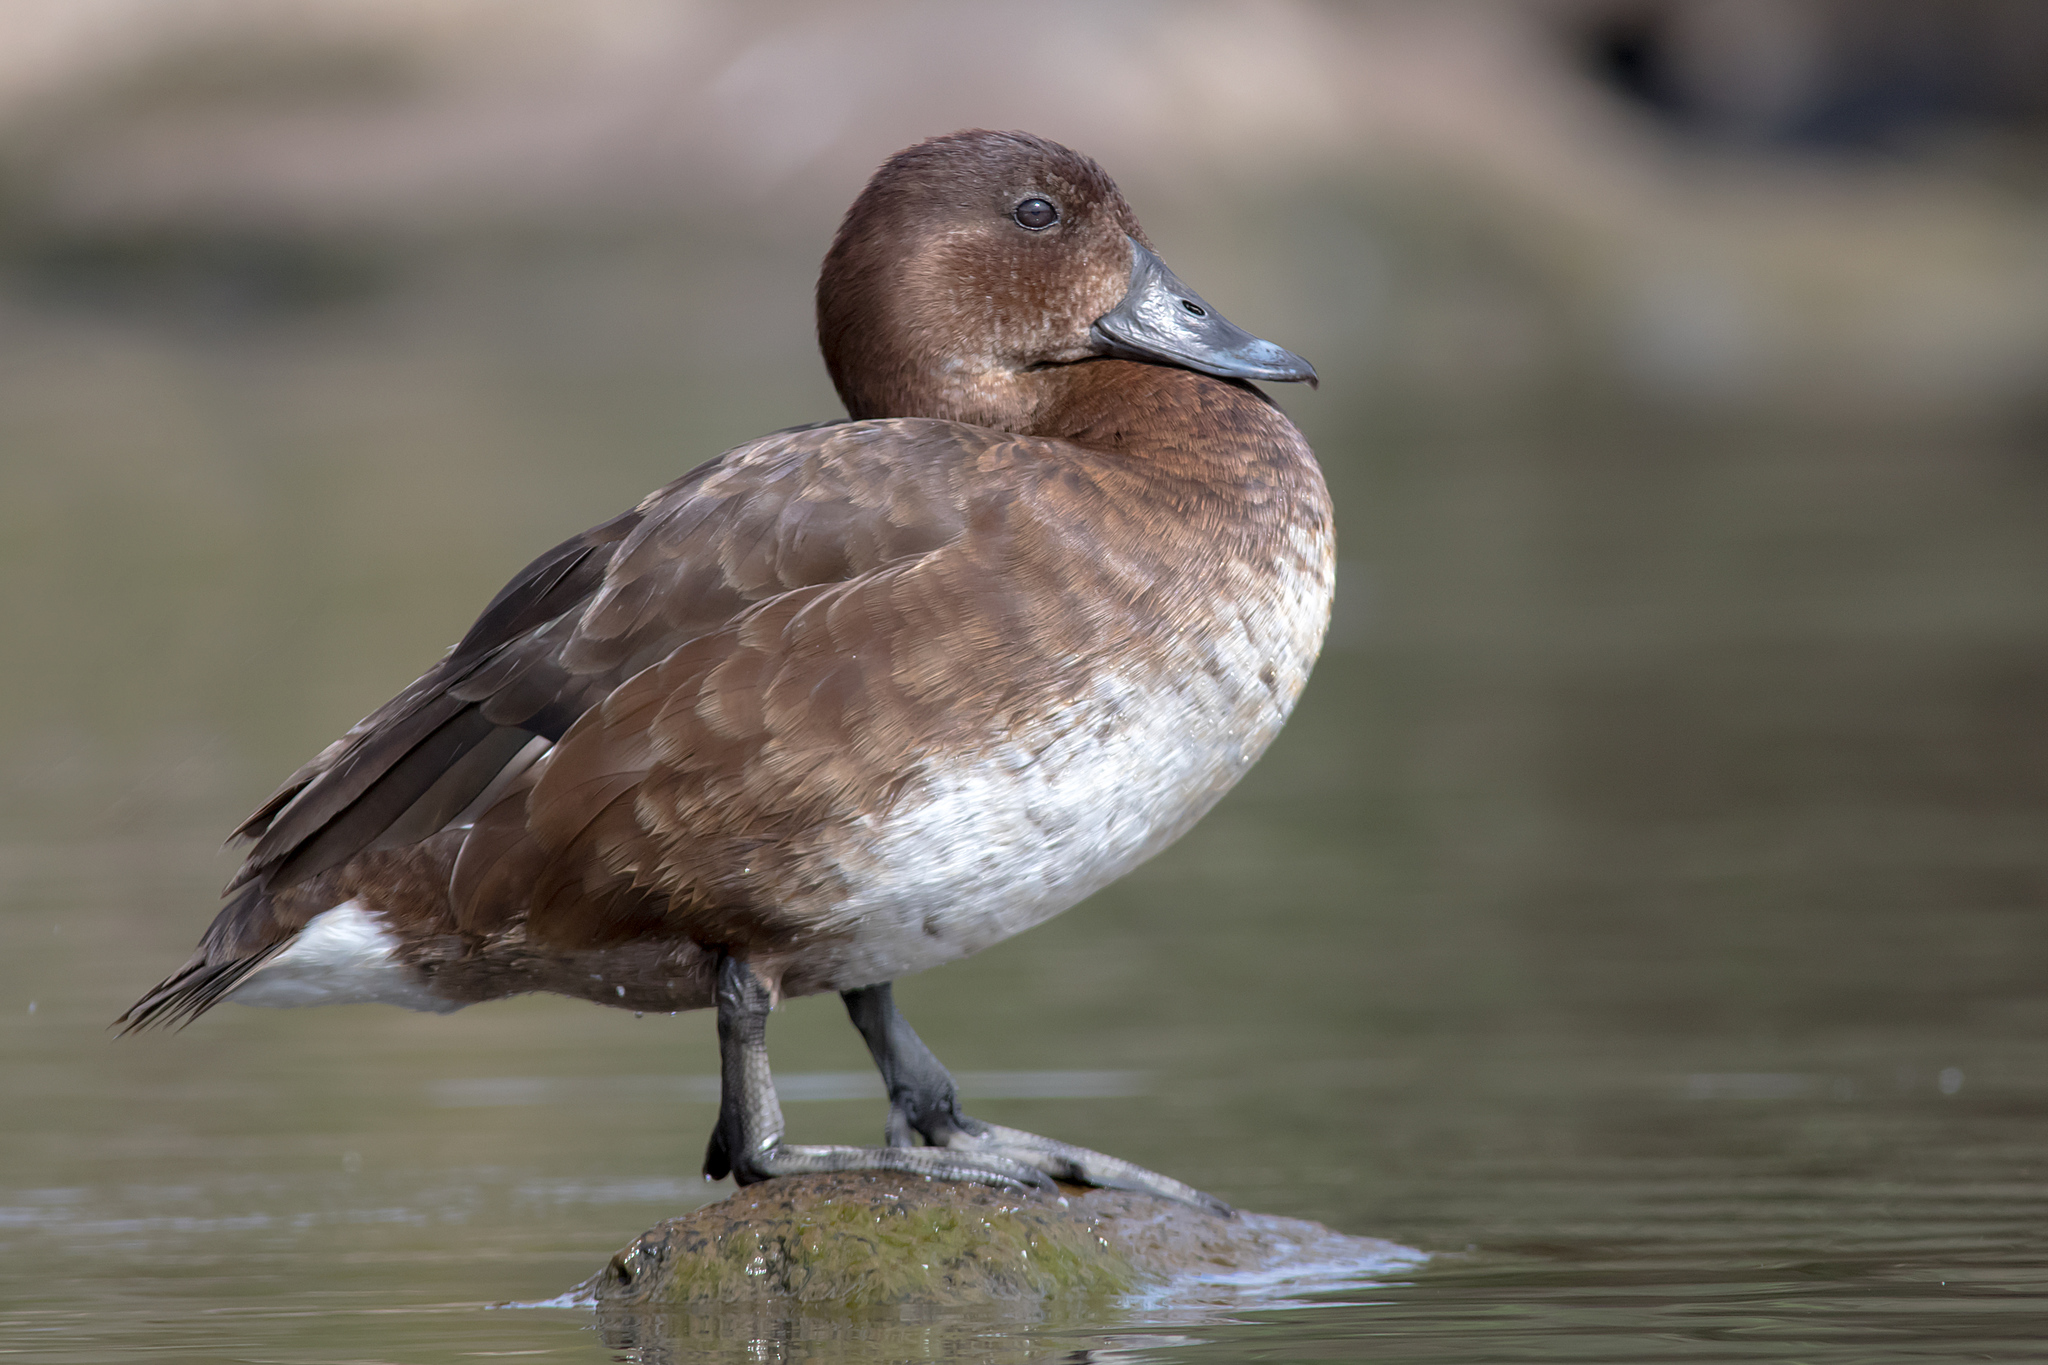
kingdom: Animalia
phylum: Chordata
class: Aves
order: Anseriformes
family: Anatidae
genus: Aythya
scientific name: Aythya australis
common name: Hardhead
